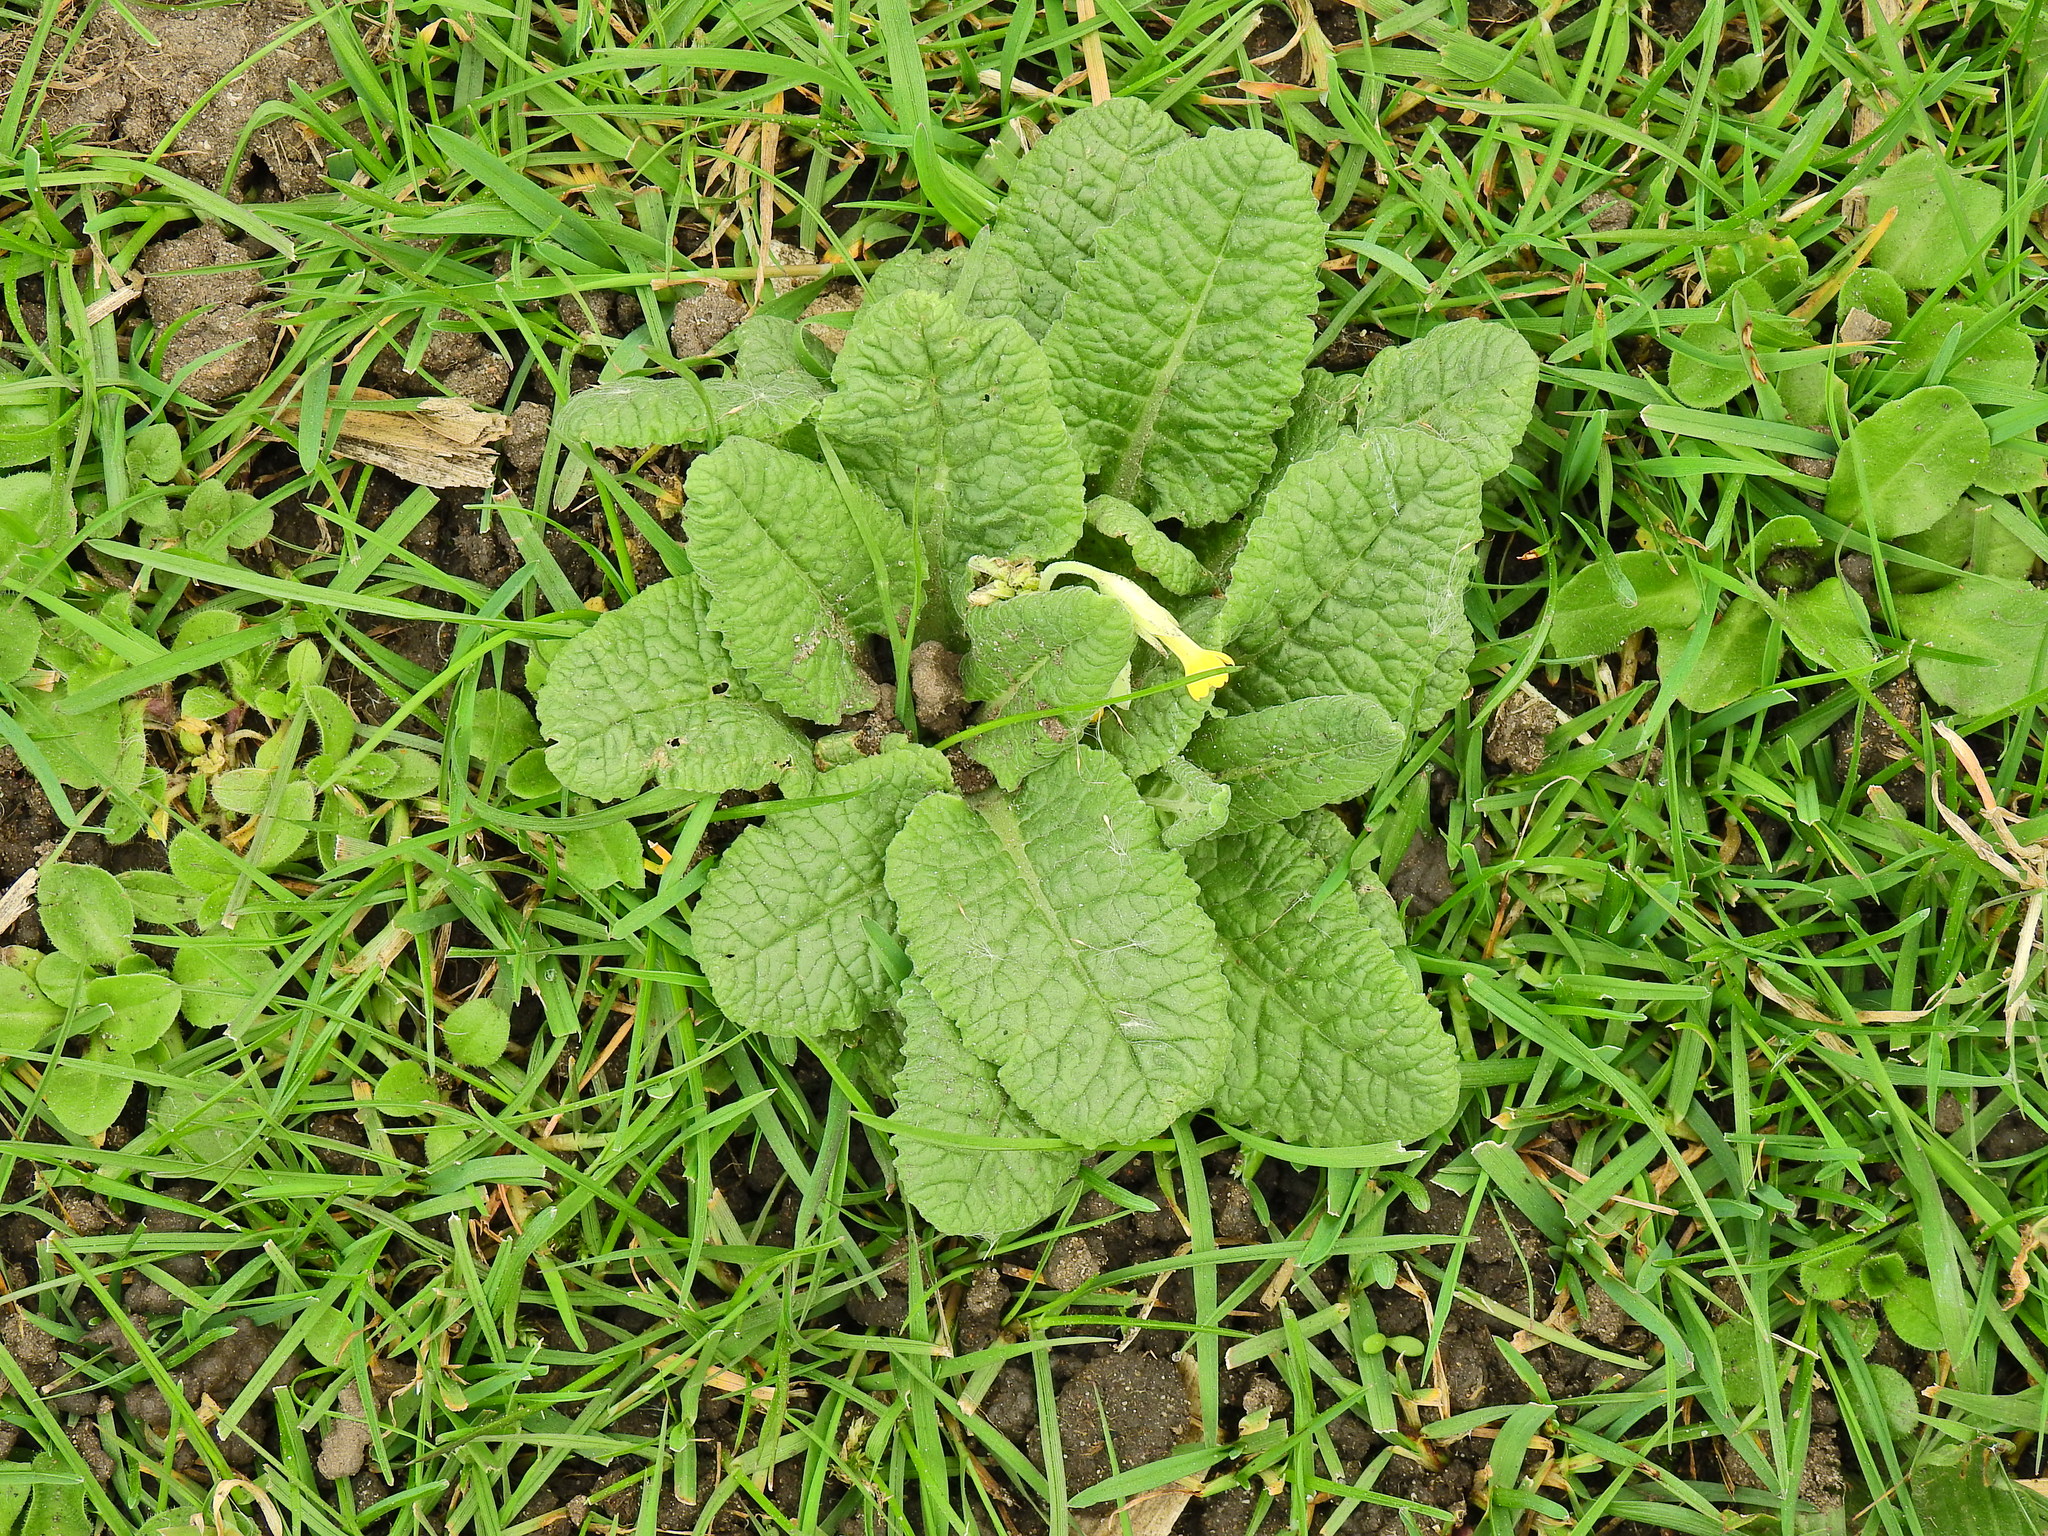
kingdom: Plantae
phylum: Tracheophyta
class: Magnoliopsida
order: Ericales
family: Primulaceae
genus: Primula
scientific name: Primula veris
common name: Cowslip
